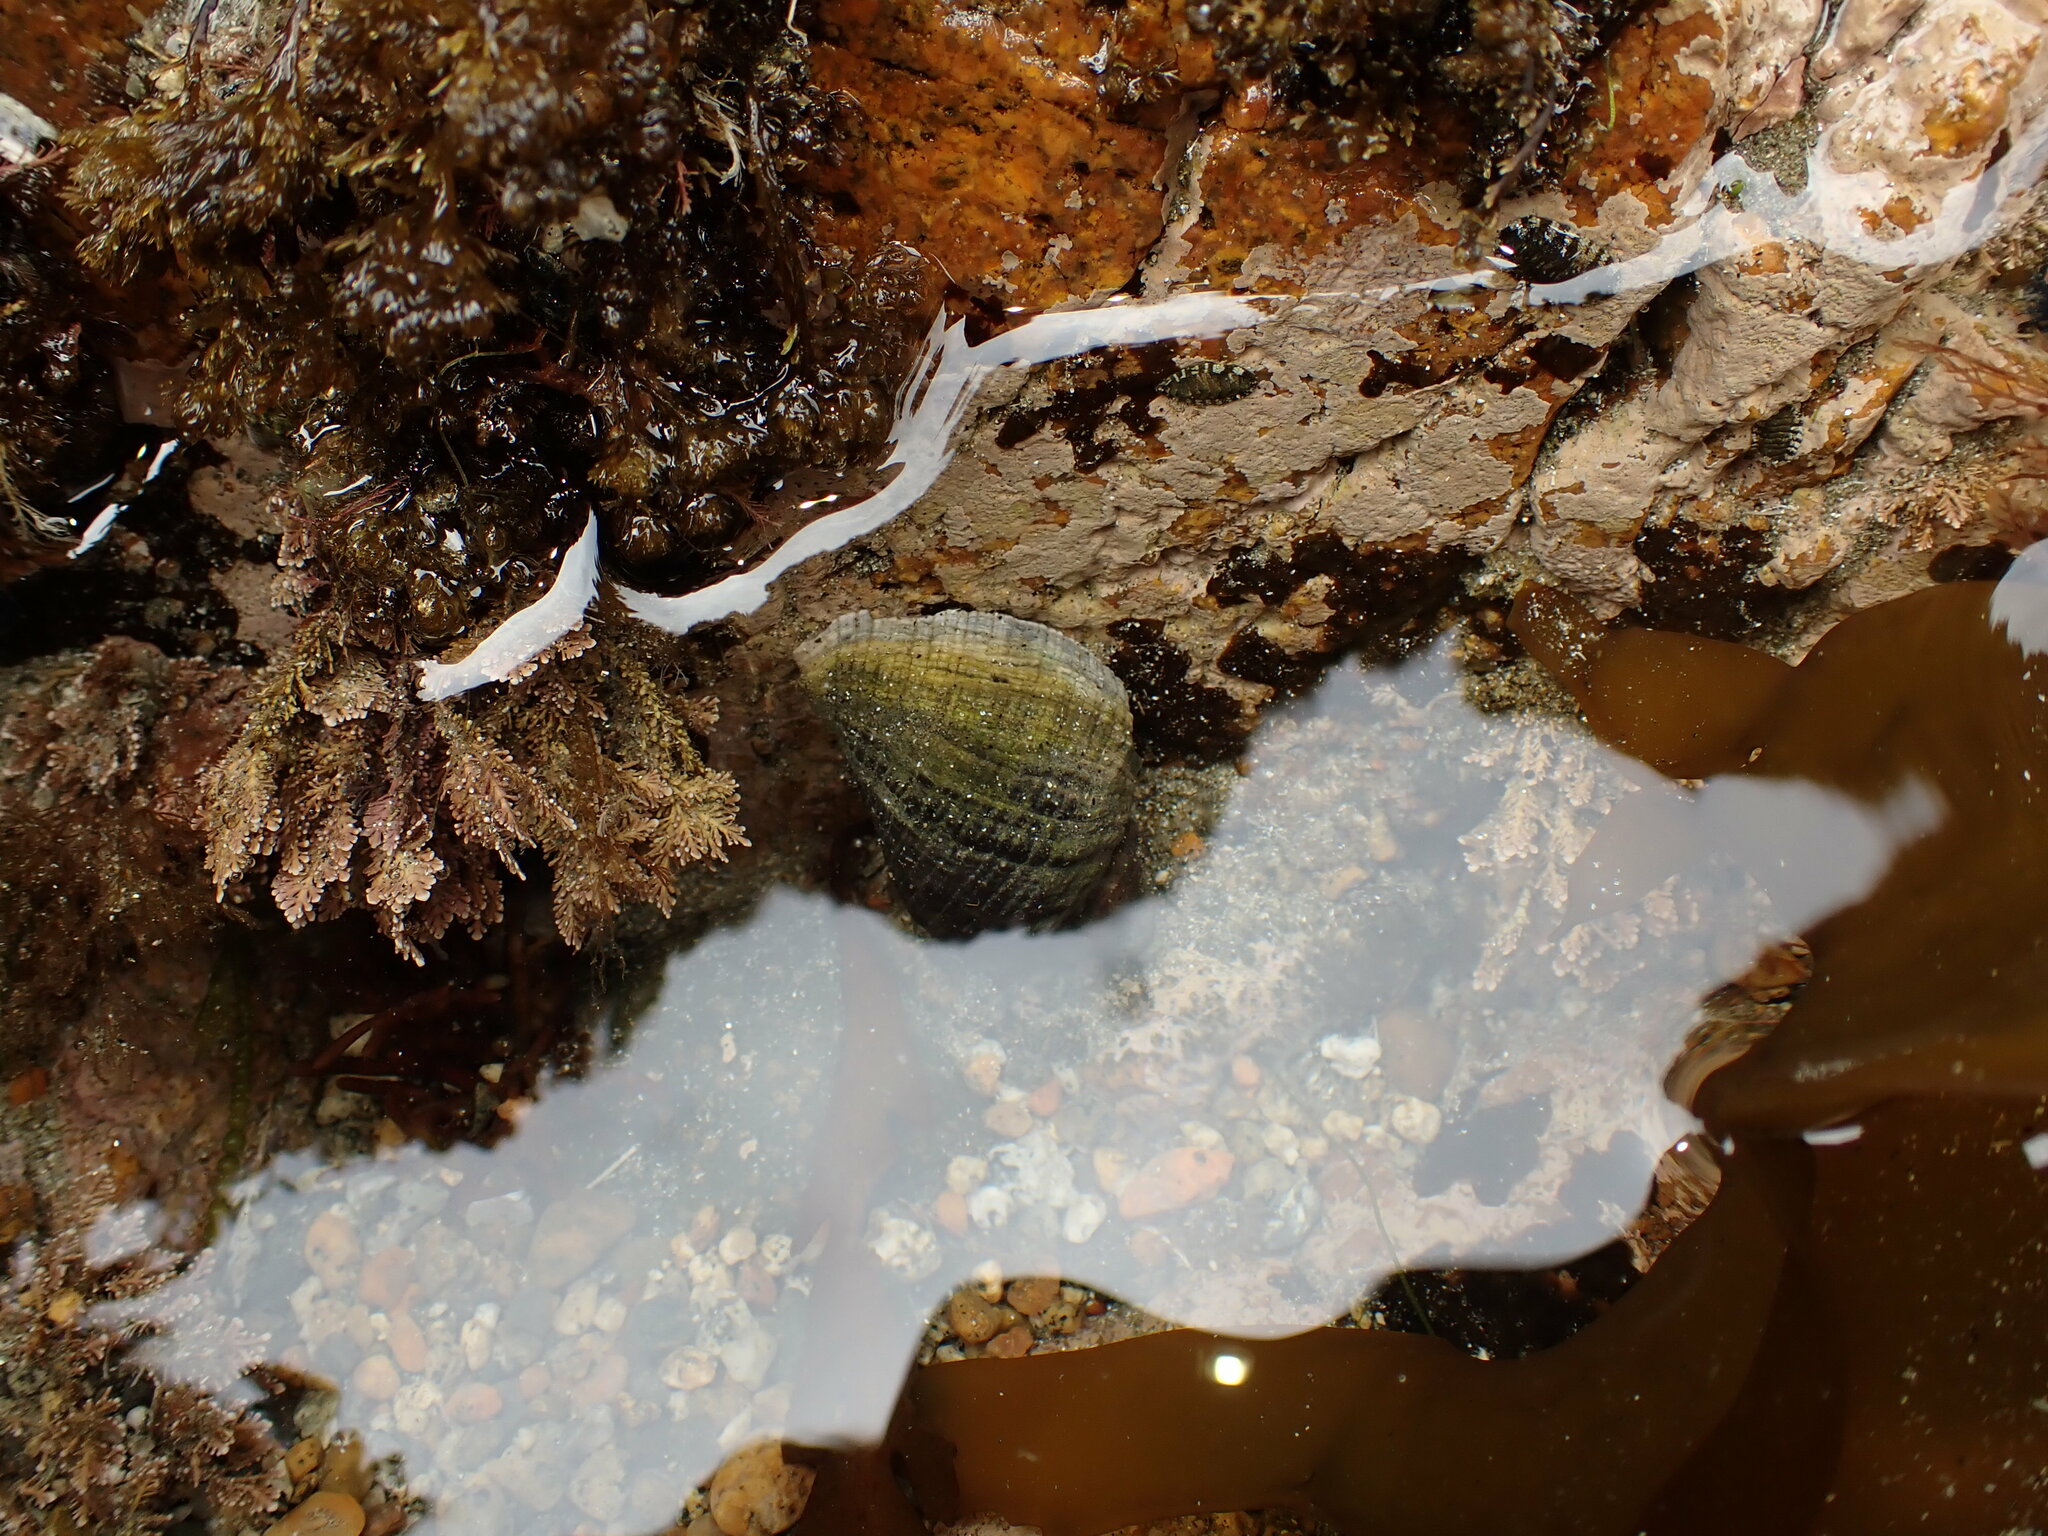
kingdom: Animalia
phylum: Mollusca
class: Gastropoda
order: Neogastropoda
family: Muricidae
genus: Haustrum
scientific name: Haustrum haustorium
